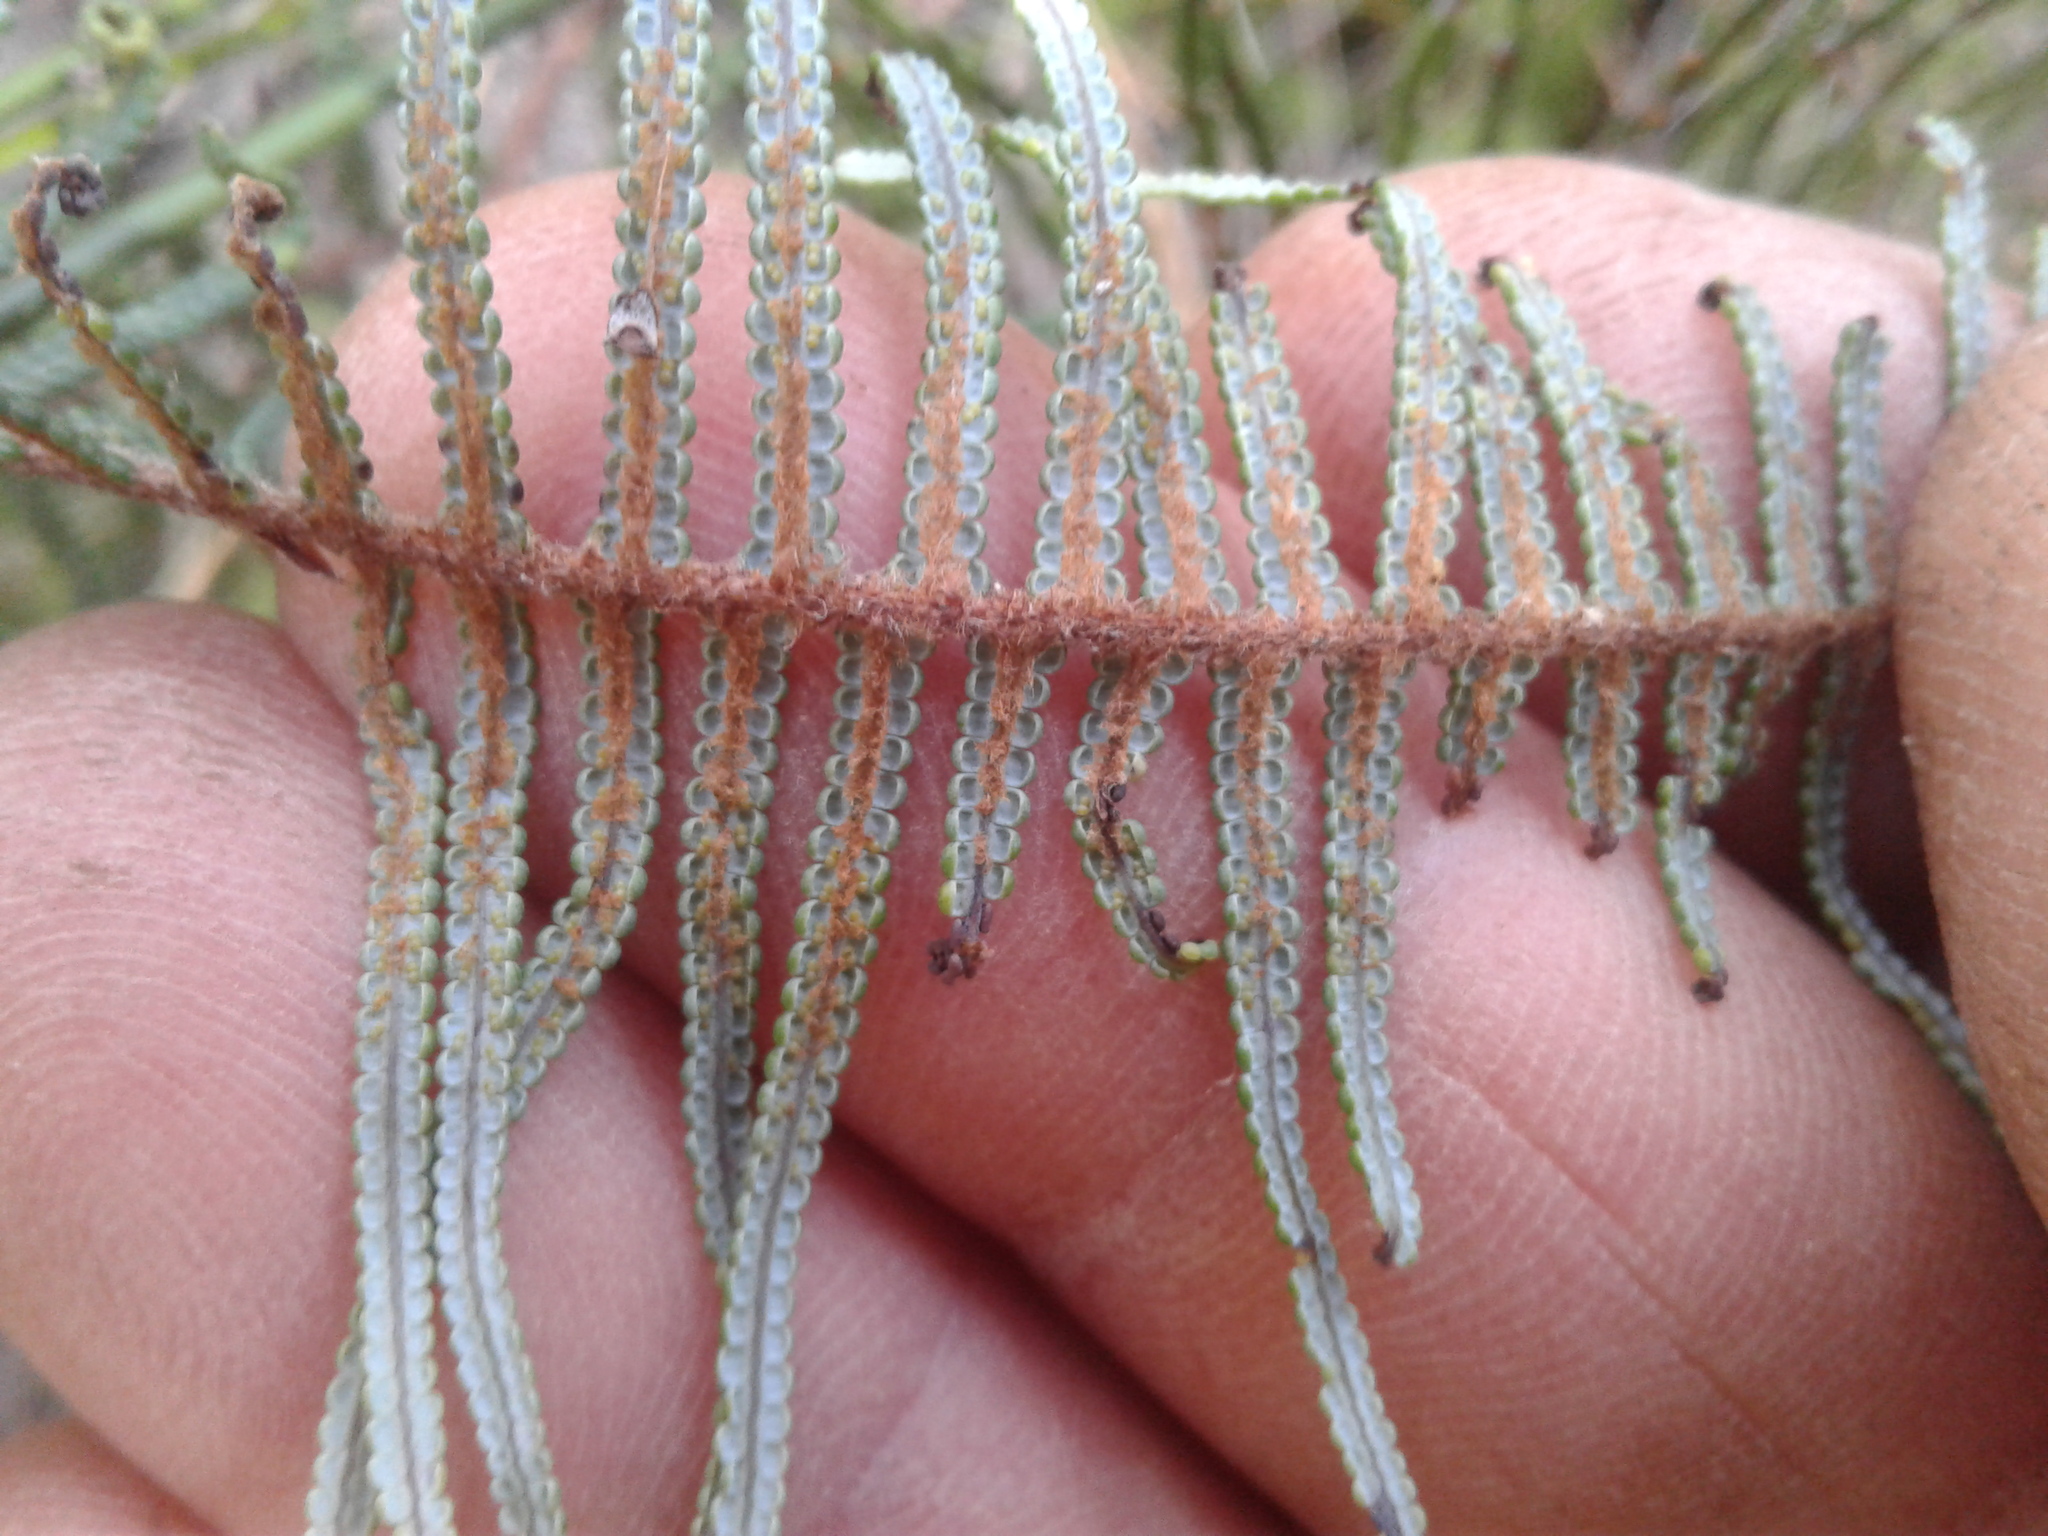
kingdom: Plantae
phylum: Tracheophyta
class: Polypodiopsida
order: Gleicheniales
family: Gleicheniaceae
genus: Gleichenia
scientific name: Gleichenia dicarpa
